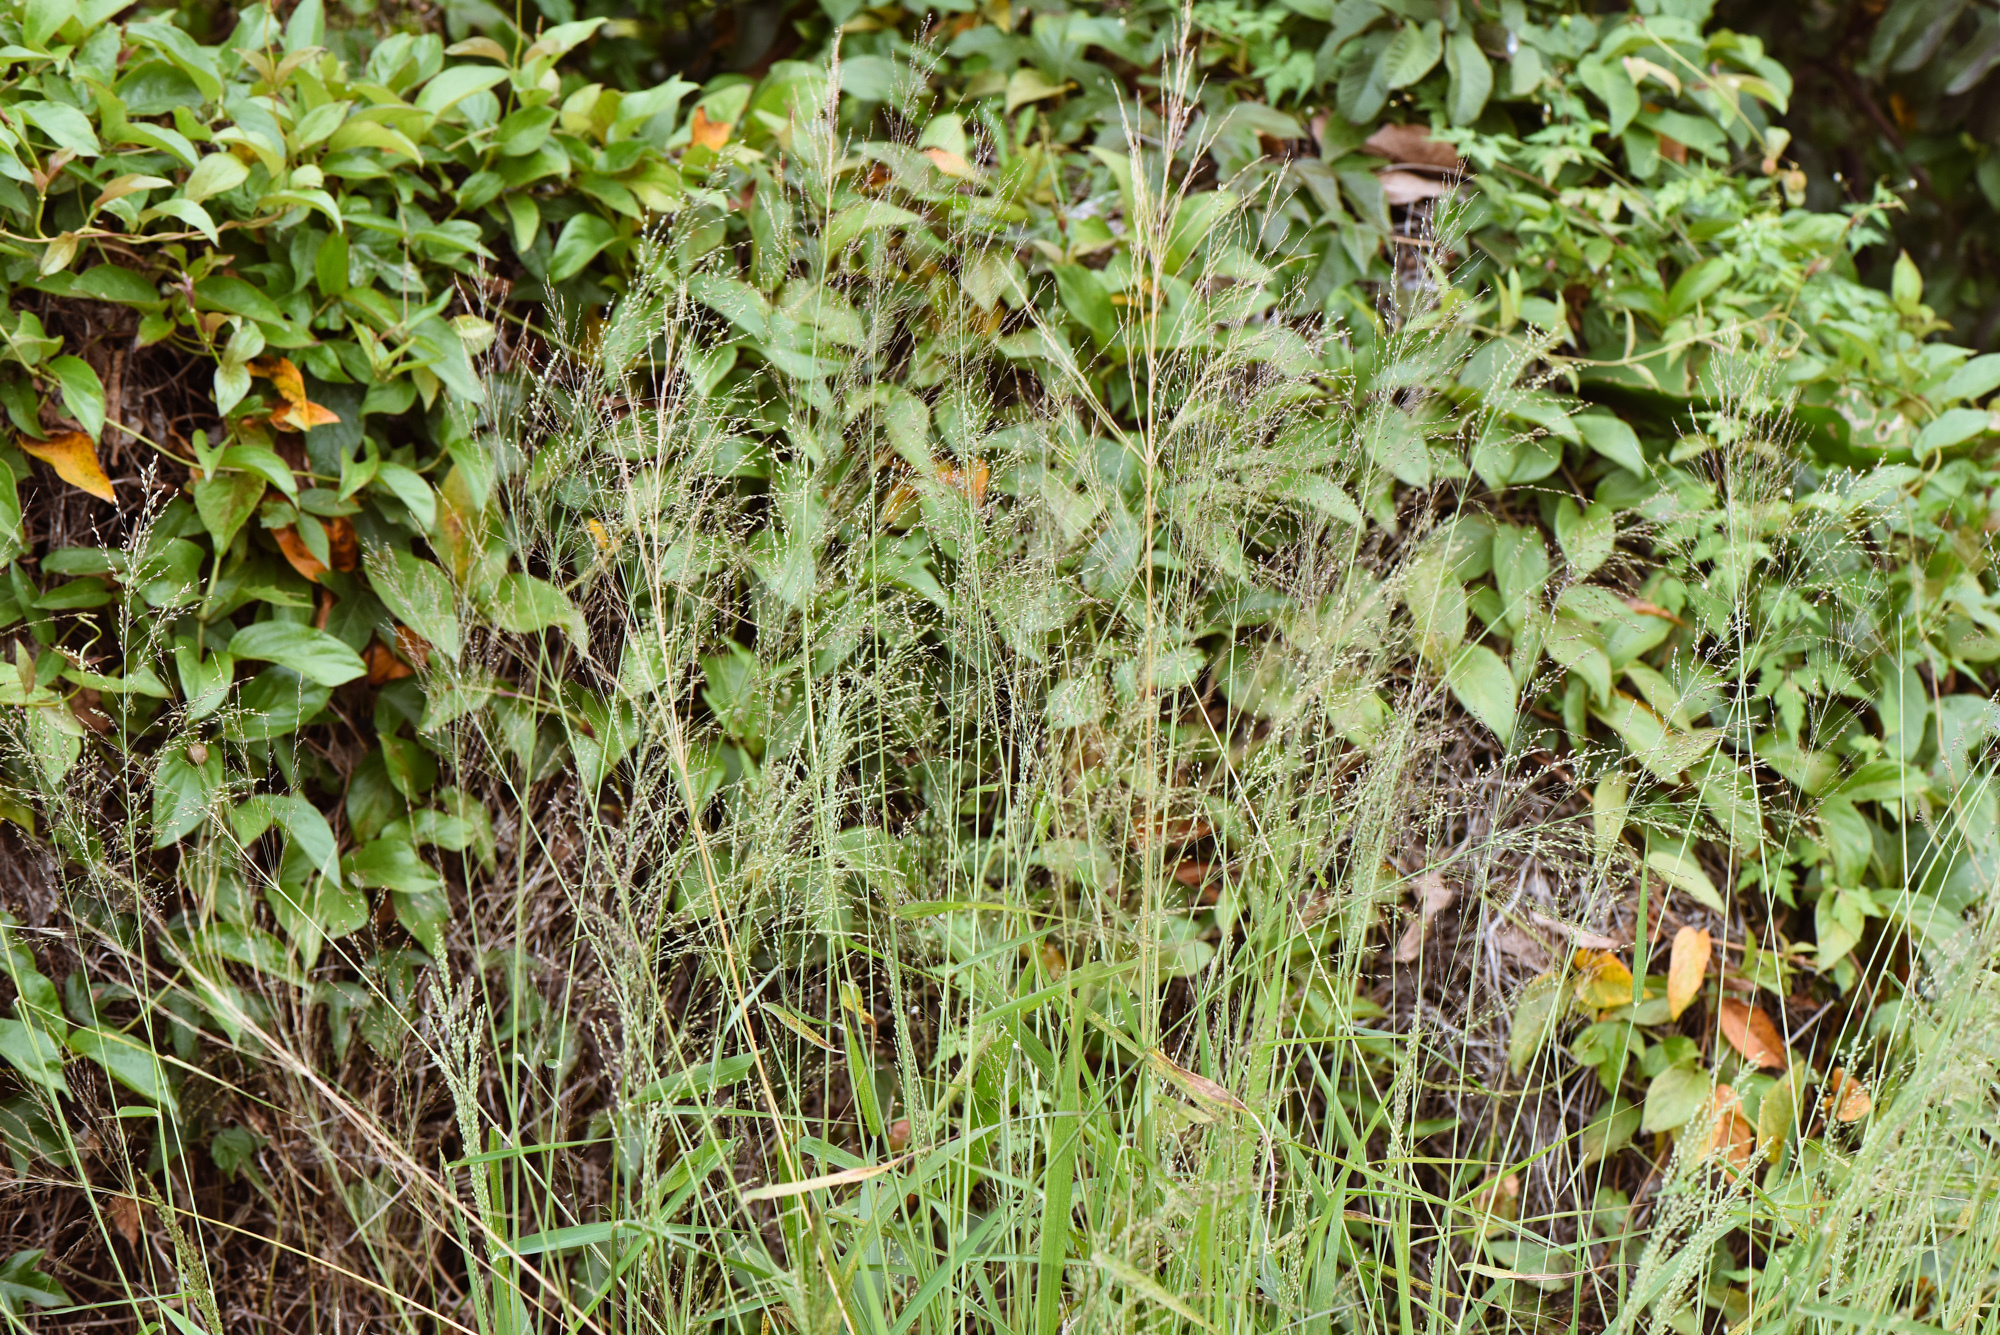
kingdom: Plantae
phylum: Tracheophyta
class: Liliopsida
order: Poales
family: Poaceae
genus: Megathyrsus
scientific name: Megathyrsus maximus
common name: Guineagrass
